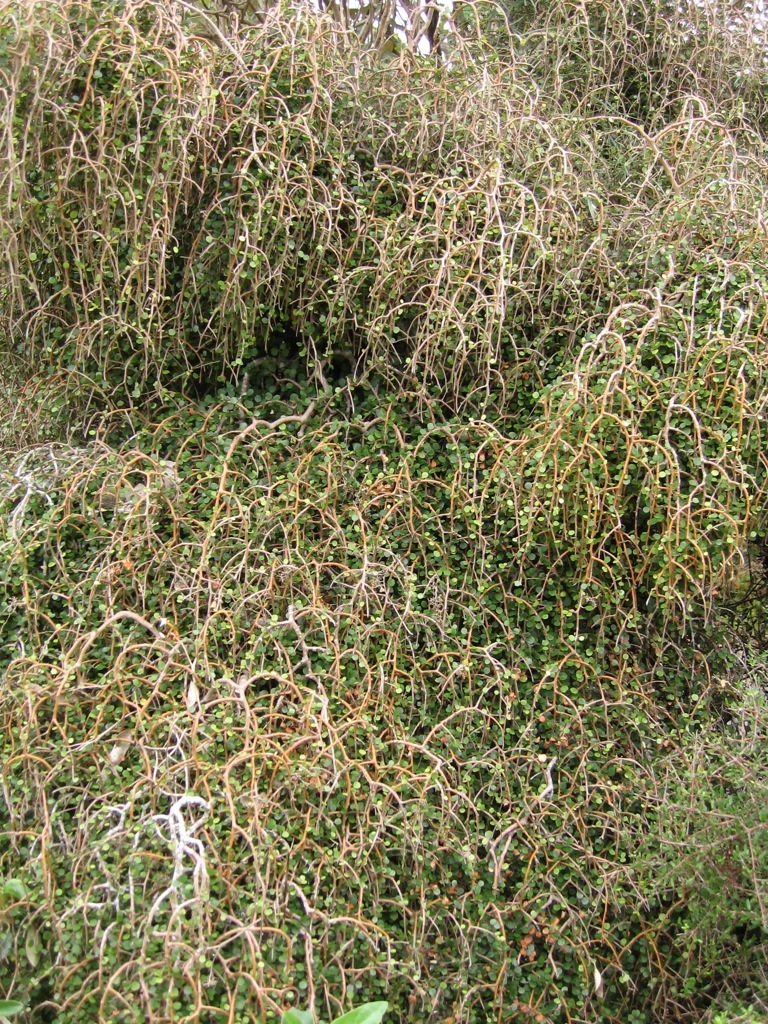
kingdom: Plantae
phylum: Tracheophyta
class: Magnoliopsida
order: Ericales
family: Primulaceae
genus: Myrsine
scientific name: Myrsine divaricata
